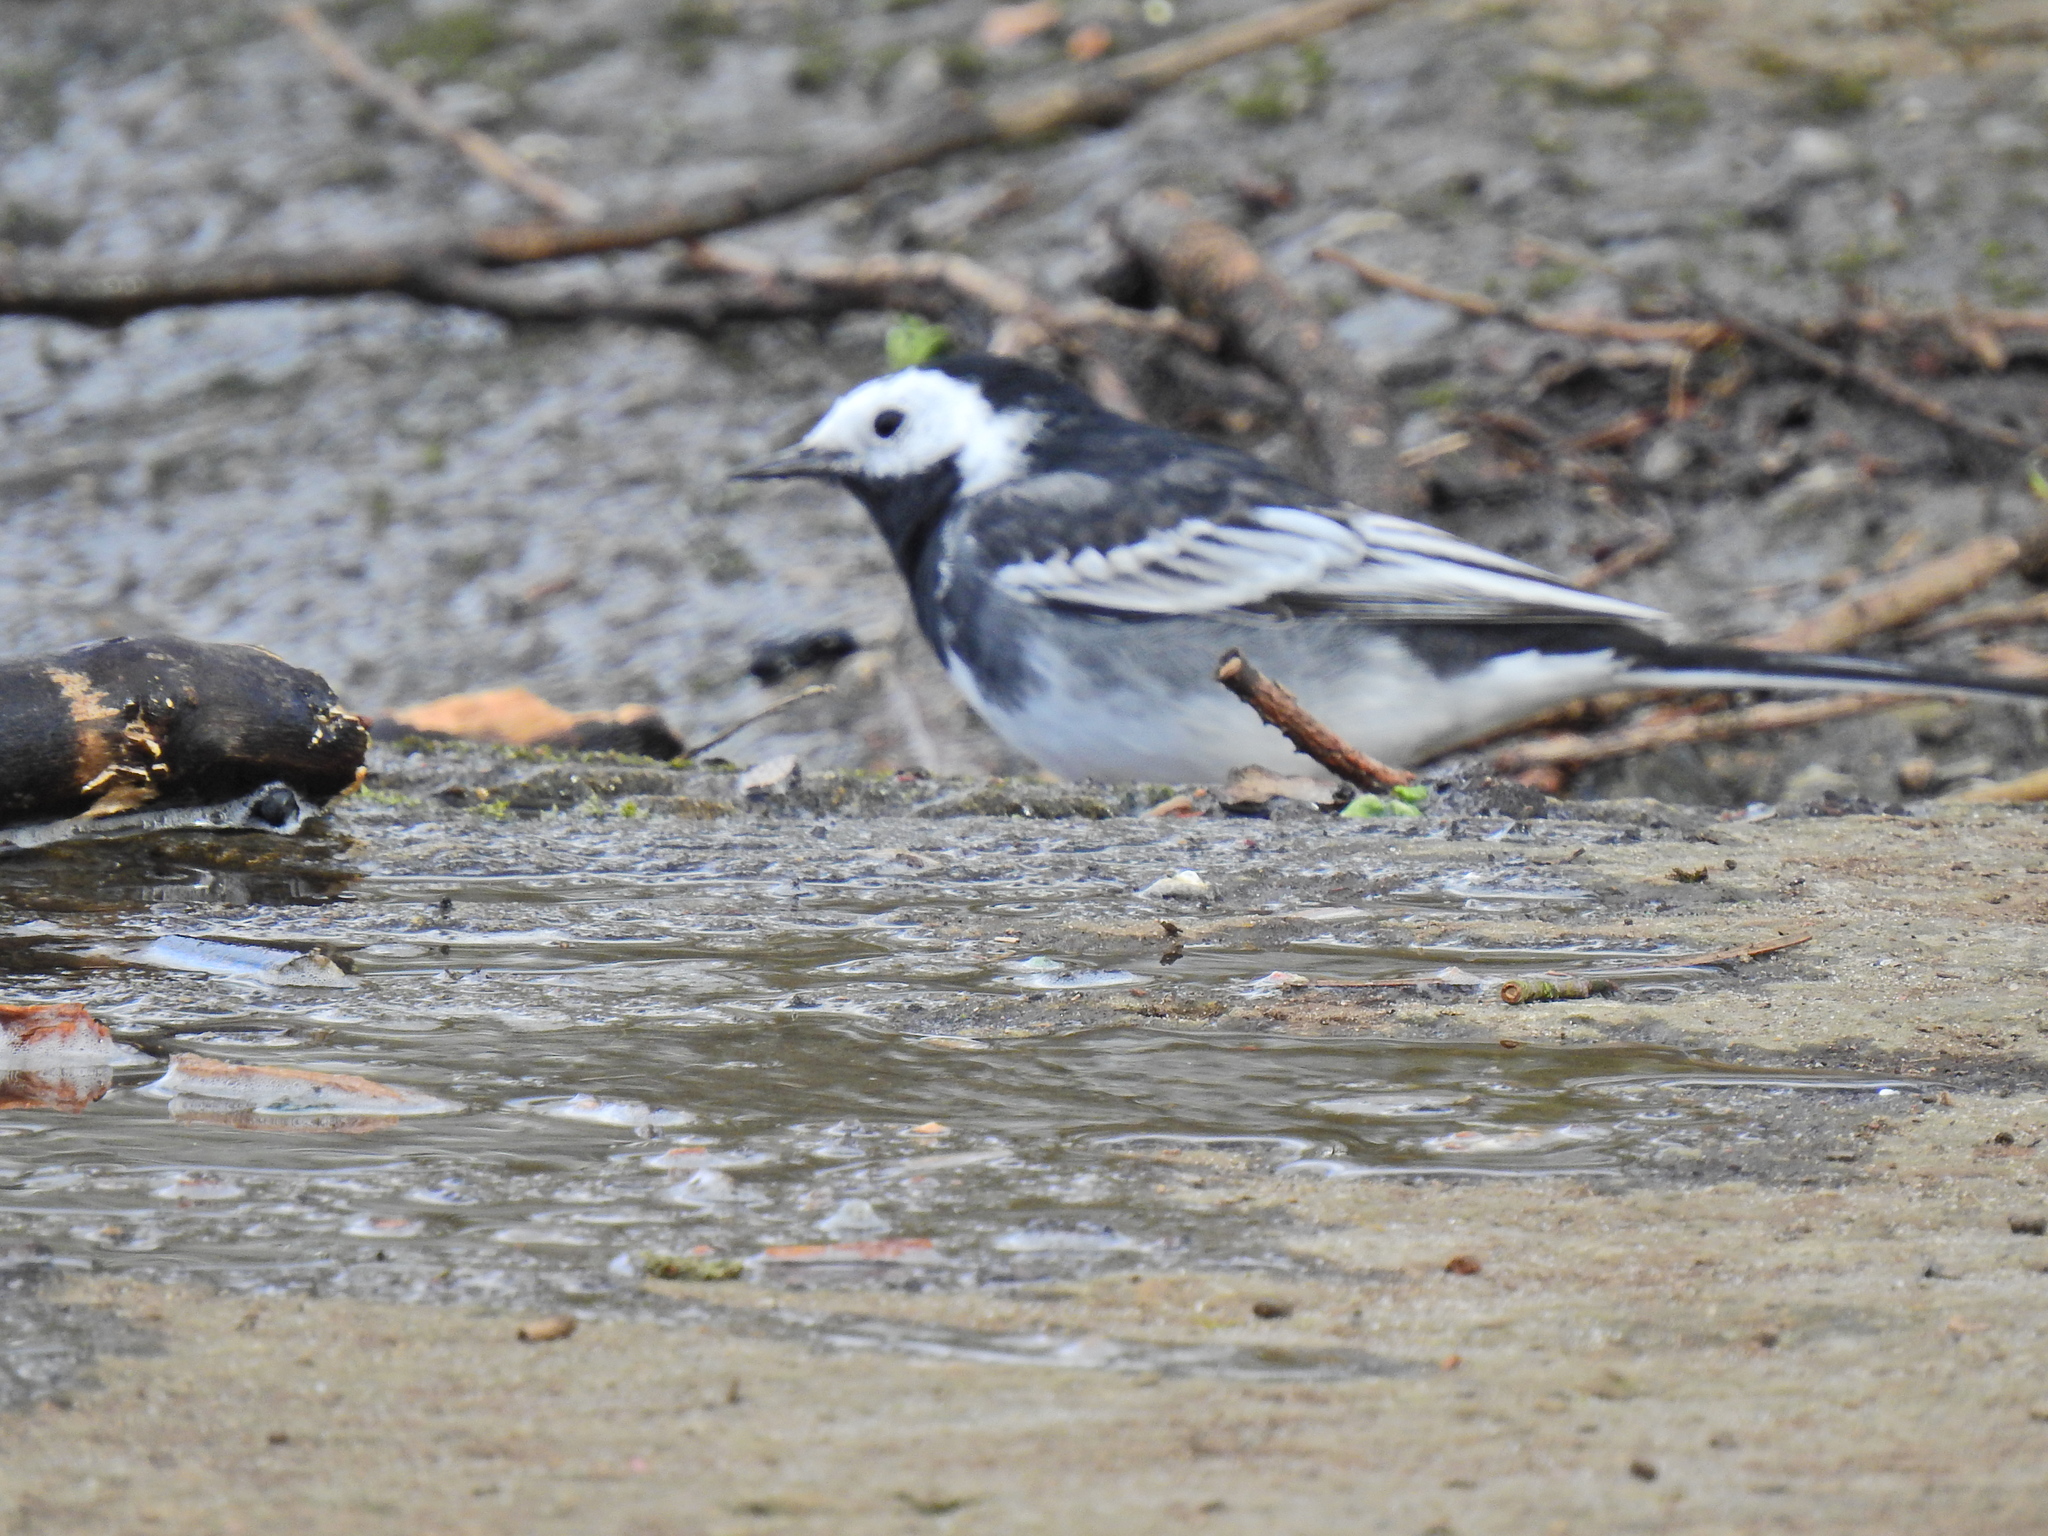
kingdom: Animalia
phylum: Chordata
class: Aves
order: Passeriformes
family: Motacillidae
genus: Motacilla
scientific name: Motacilla alba
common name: White wagtail
